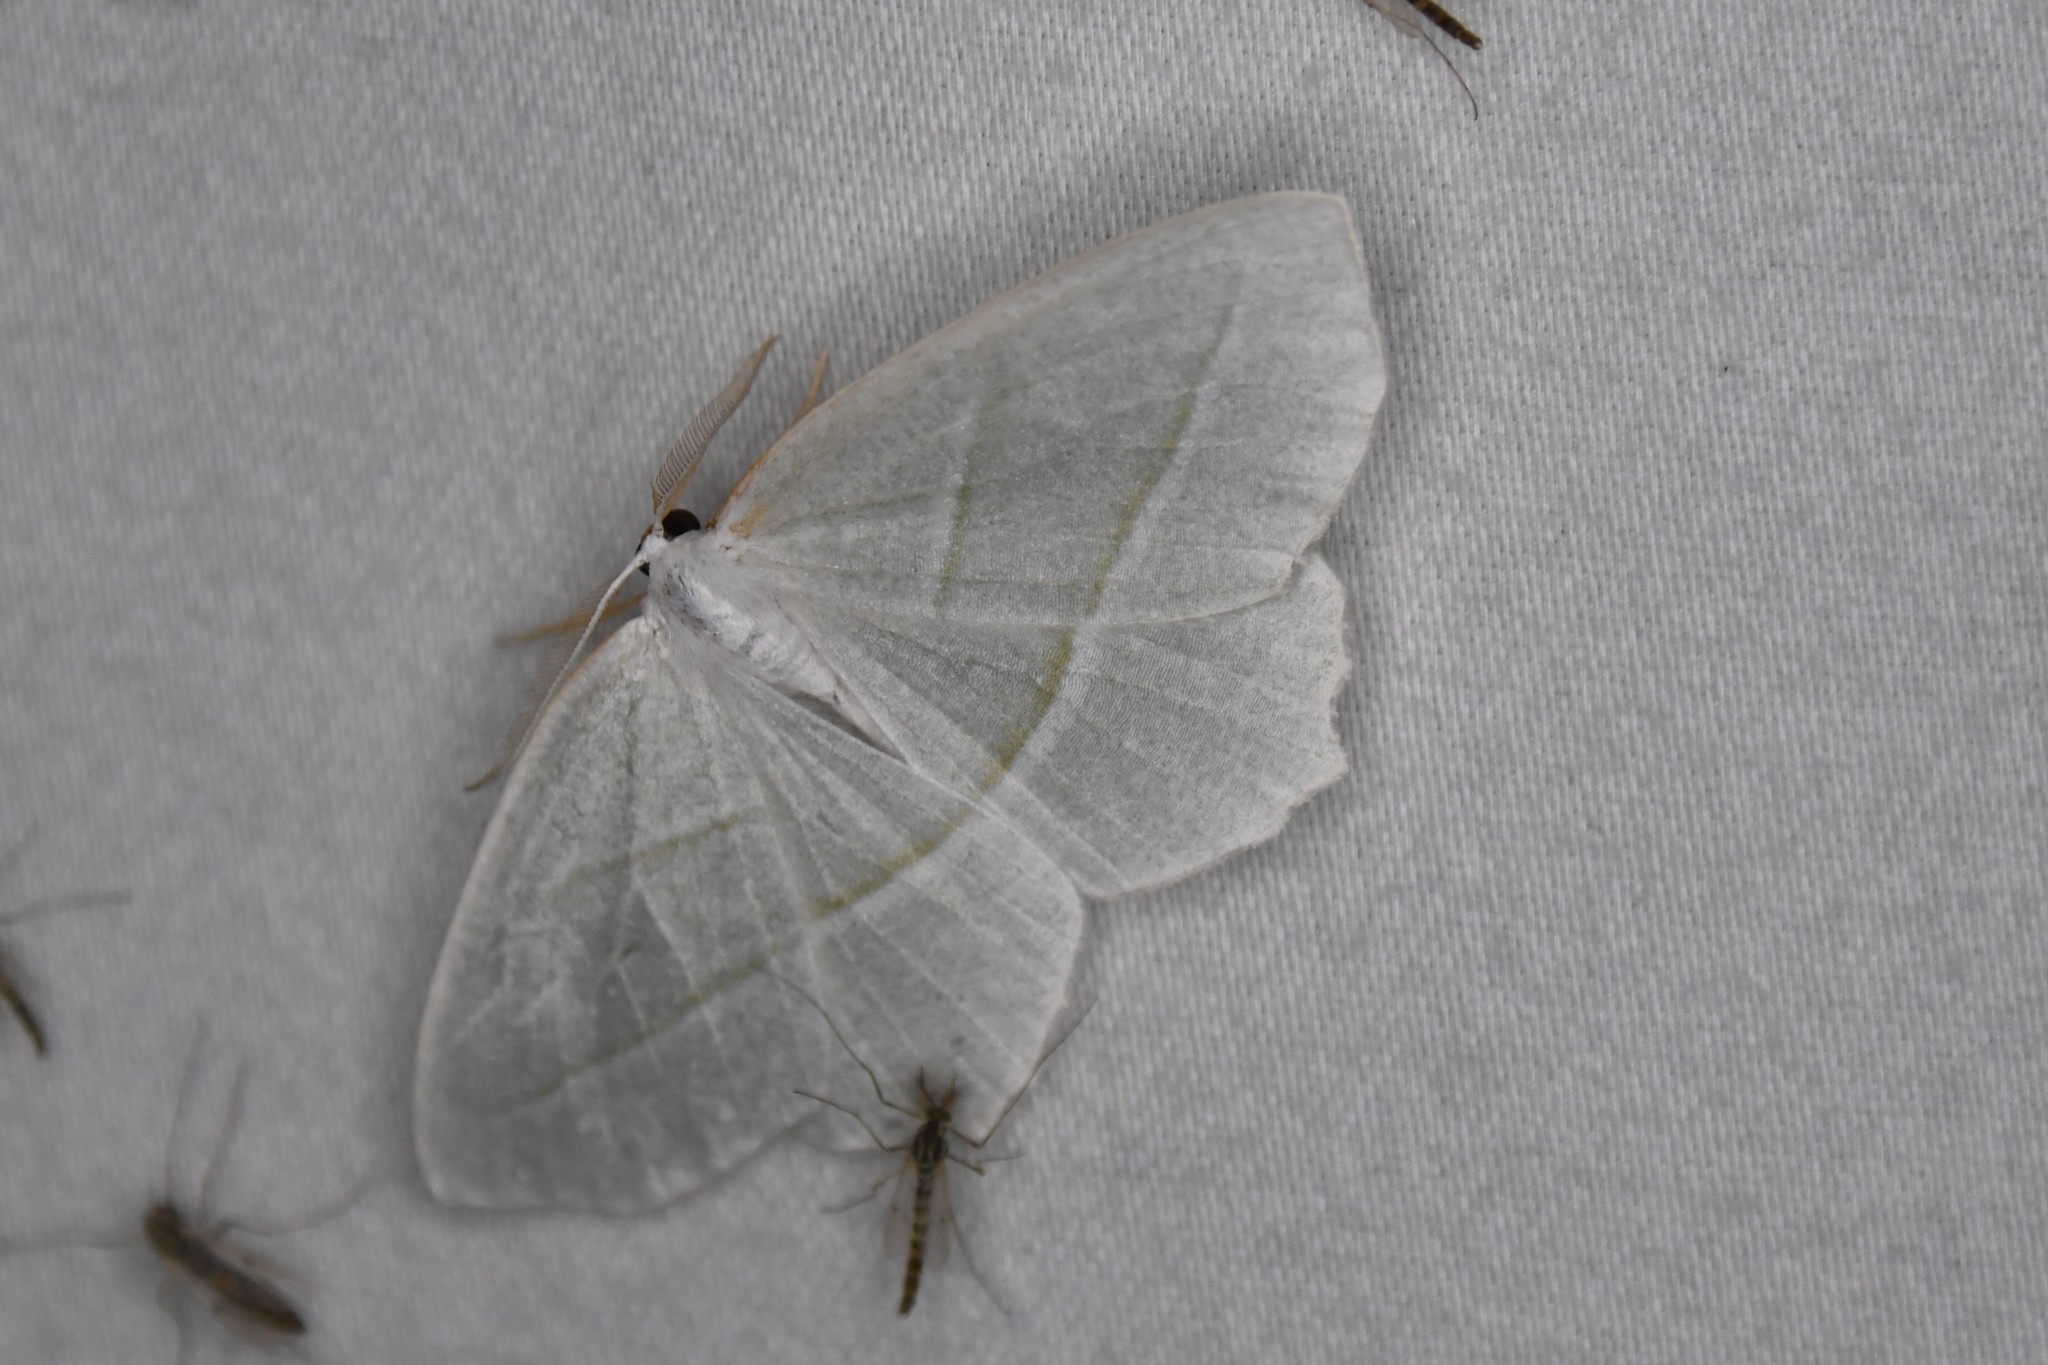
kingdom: Animalia
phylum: Arthropoda
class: Insecta
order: Lepidoptera
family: Geometridae
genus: Campaea
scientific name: Campaea perlata
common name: Fringed looper
